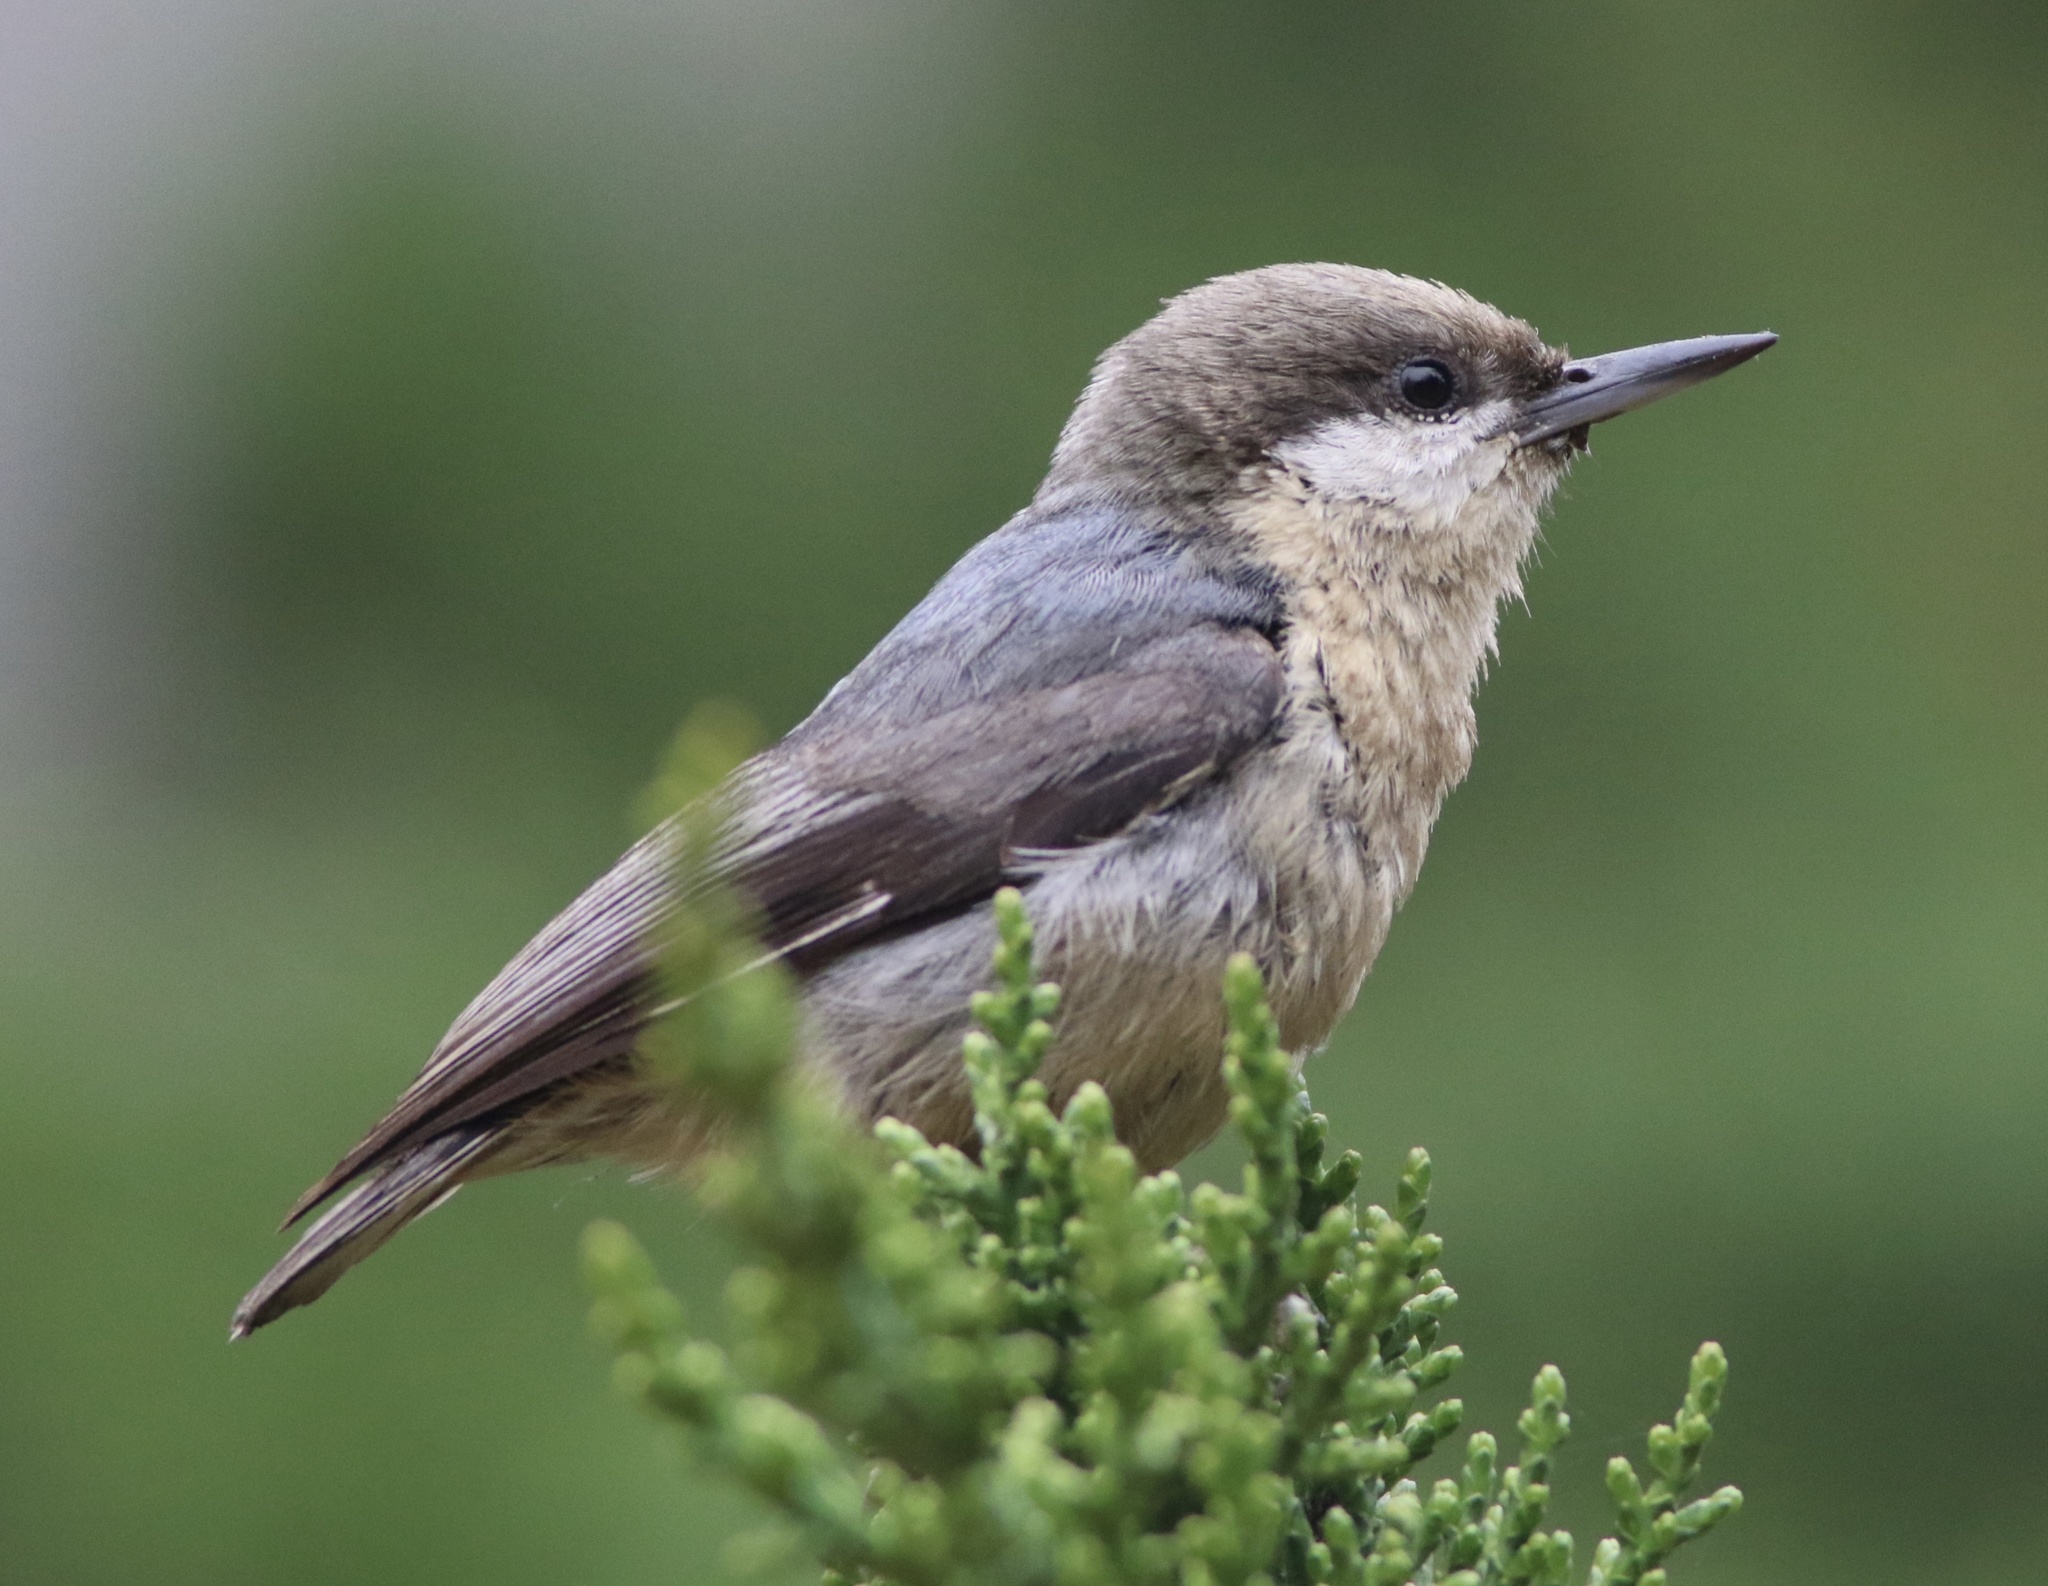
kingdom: Animalia
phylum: Chordata
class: Aves
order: Passeriformes
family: Sittidae
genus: Sitta
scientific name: Sitta pygmaea
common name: Pygmy nuthatch
